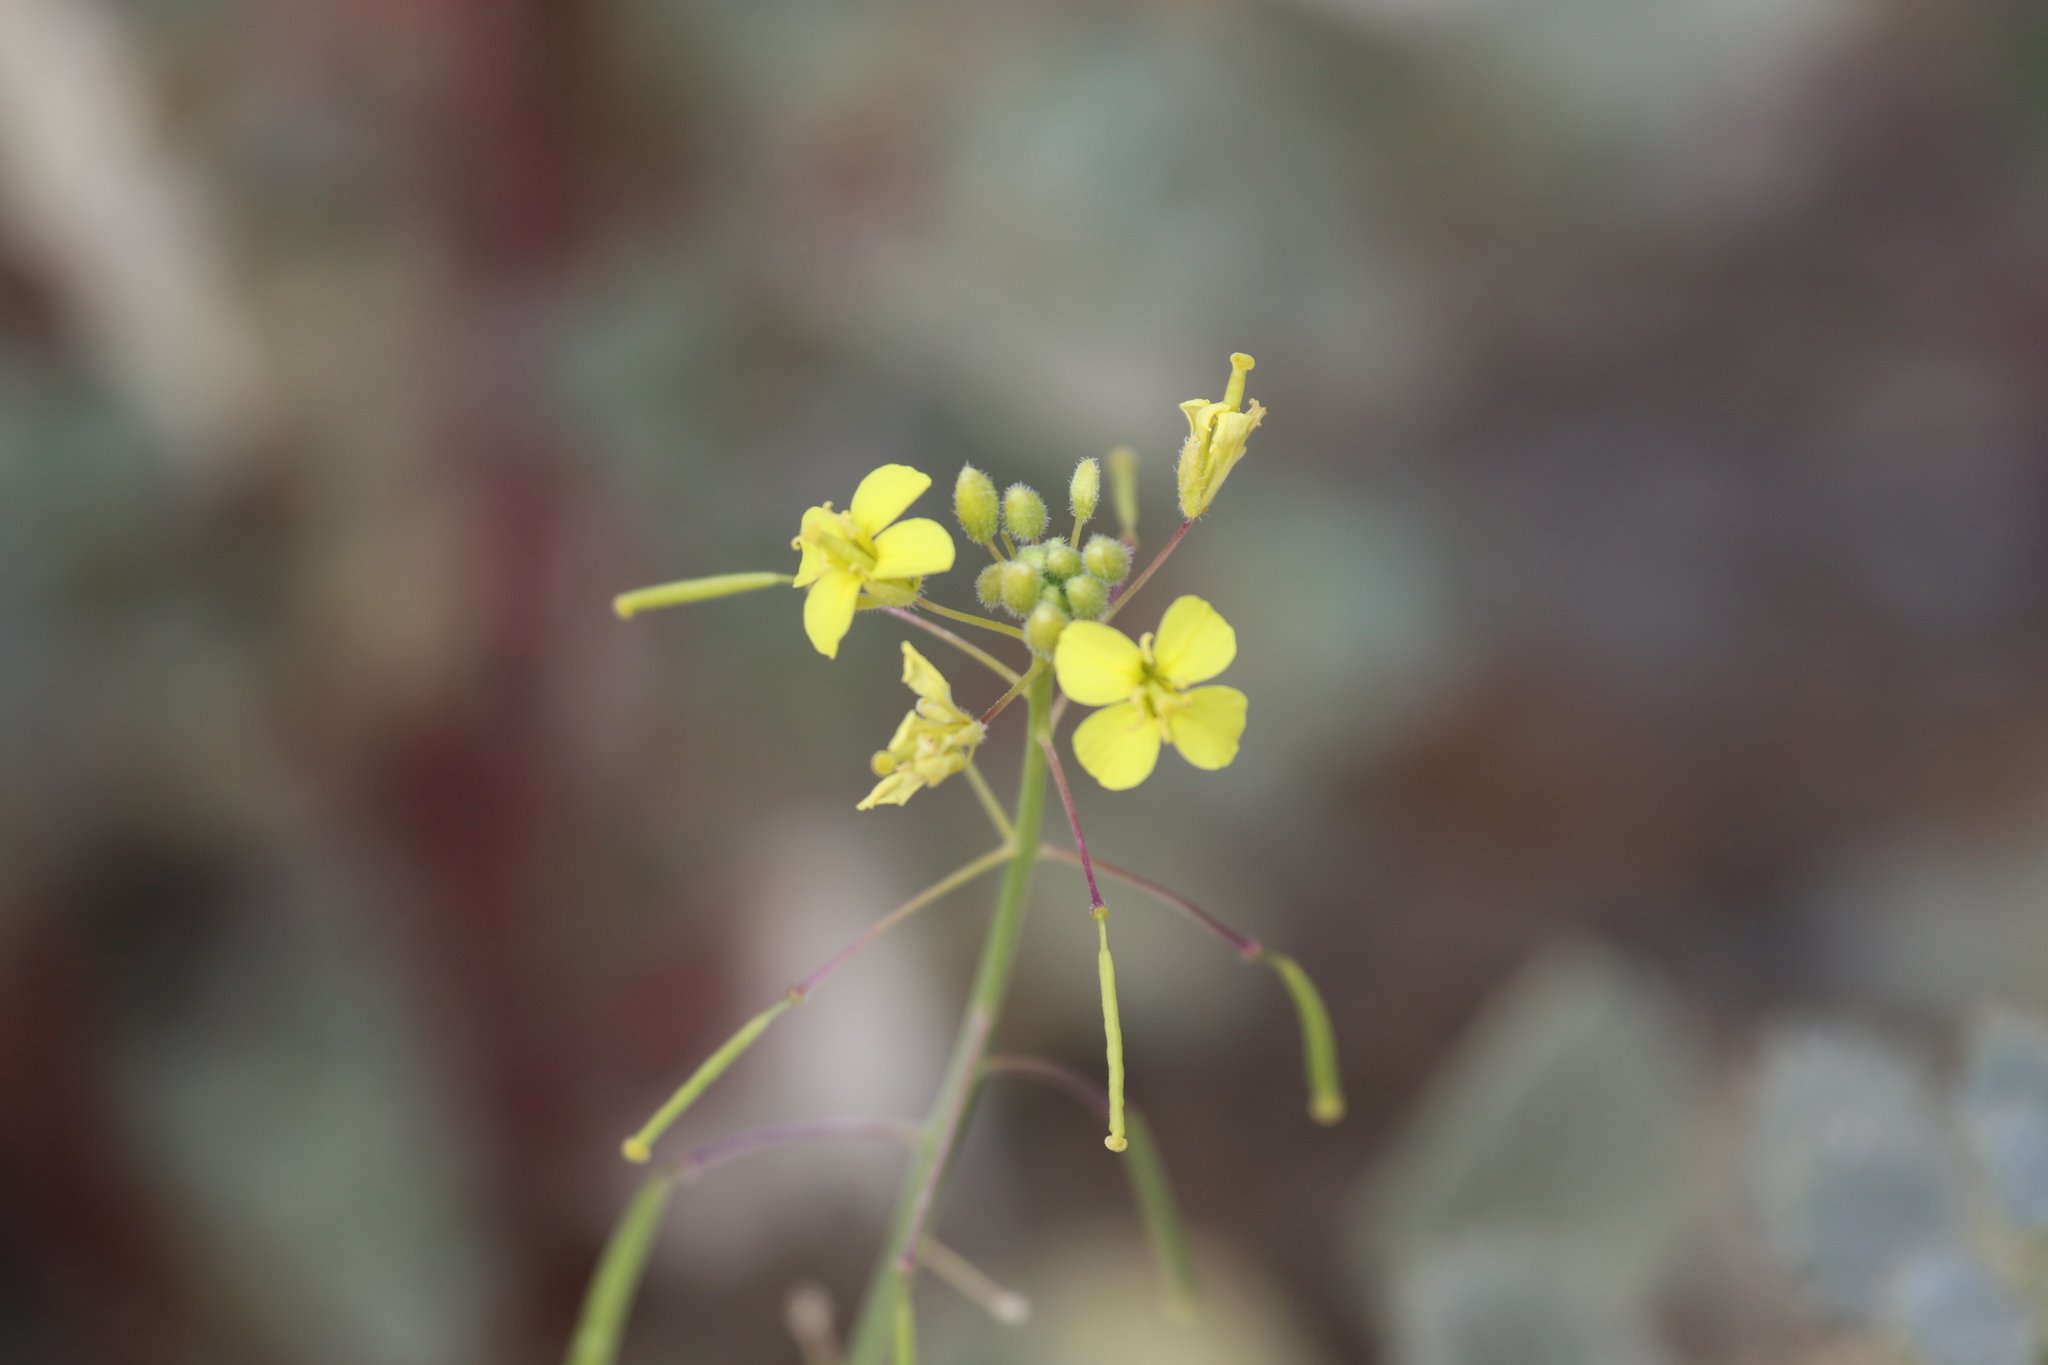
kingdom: Plantae
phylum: Tracheophyta
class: Magnoliopsida
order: Brassicales
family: Brassicaceae
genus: Diplotaxis
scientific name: Diplotaxis harra
